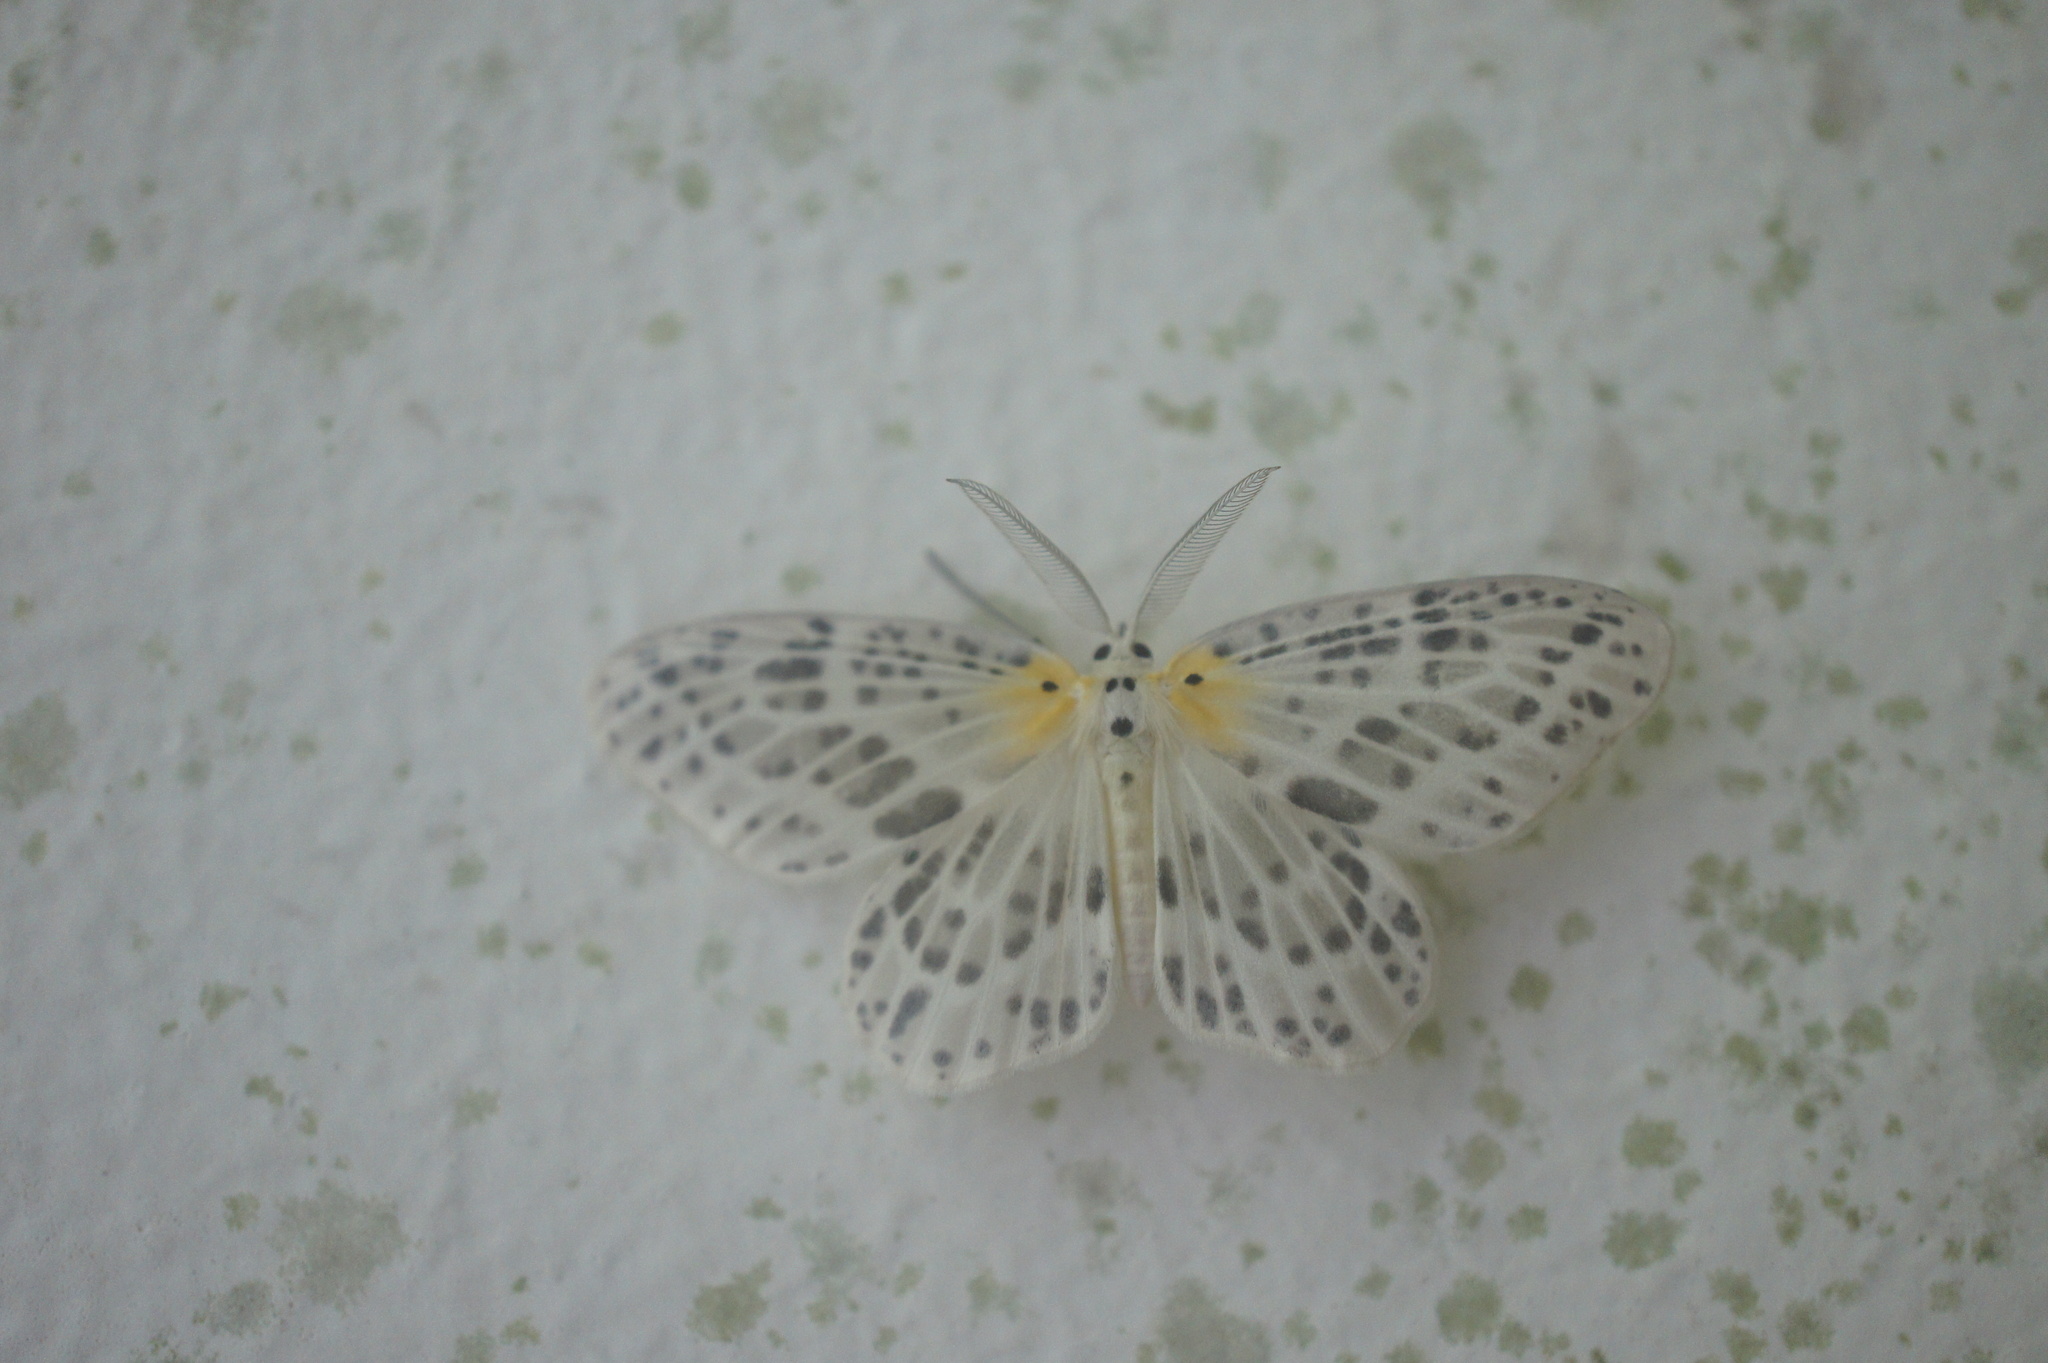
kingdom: Animalia
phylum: Arthropoda
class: Insecta
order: Lepidoptera
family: Geometridae
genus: Genussa
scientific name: Genussa simplex
